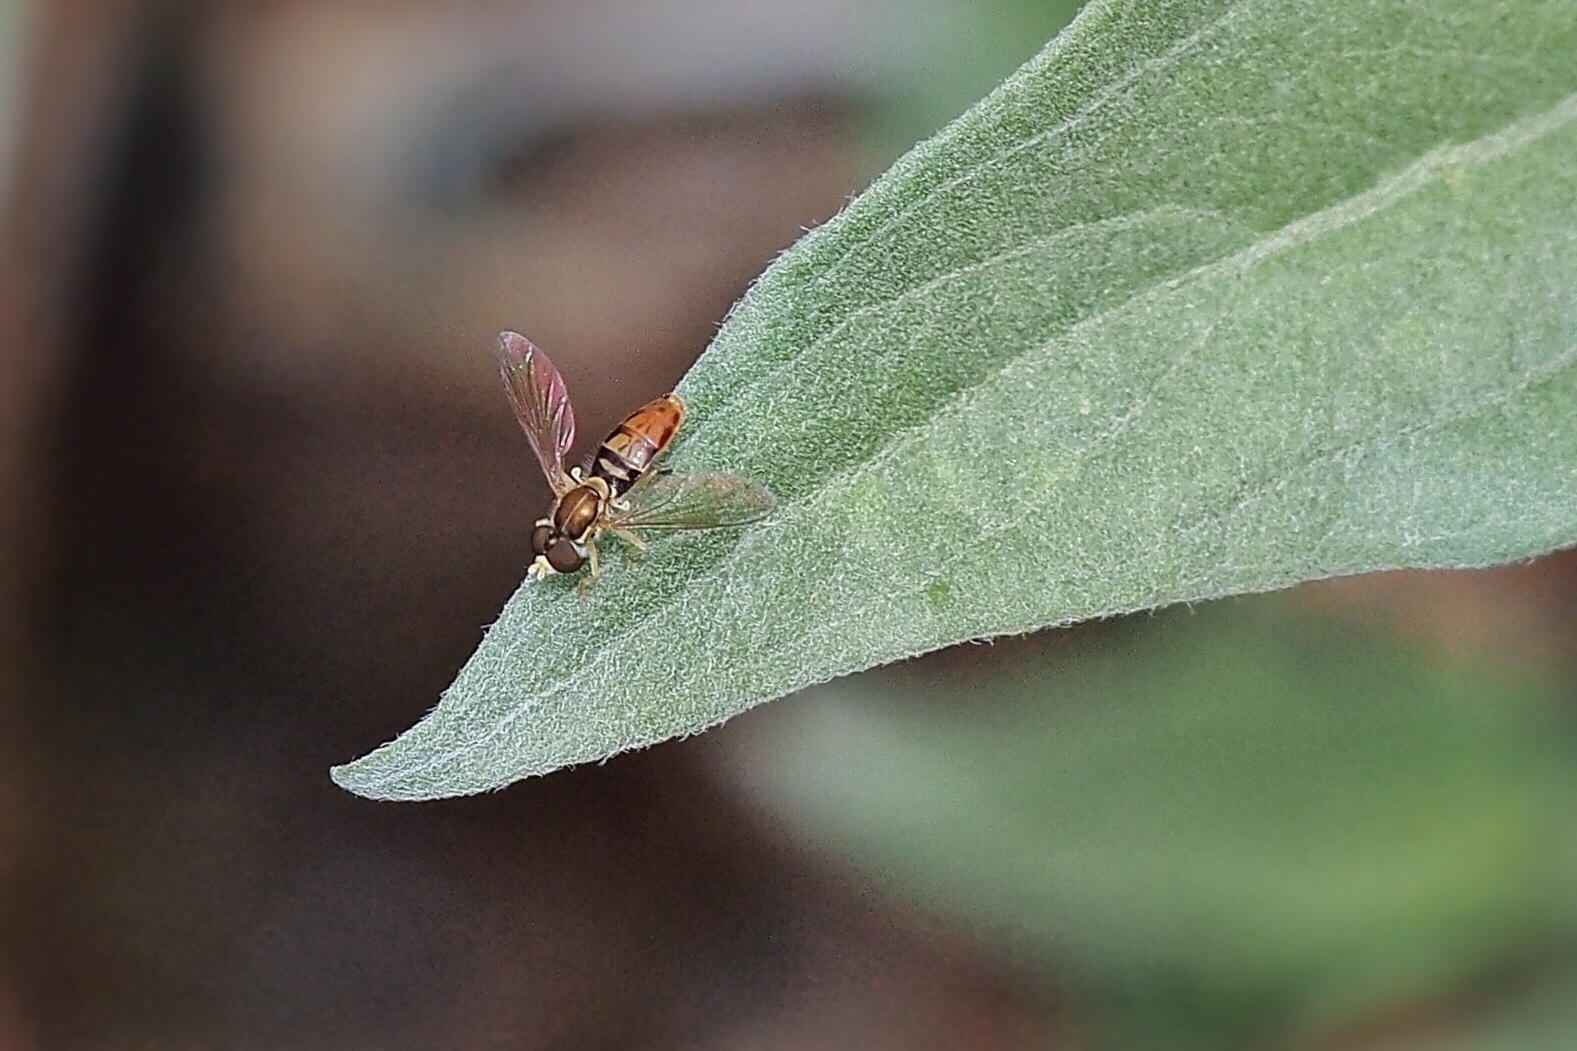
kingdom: Animalia
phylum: Arthropoda
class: Insecta
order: Diptera
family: Syrphidae
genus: Toxomerus
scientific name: Toxomerus marginatus
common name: Syrphid fly
